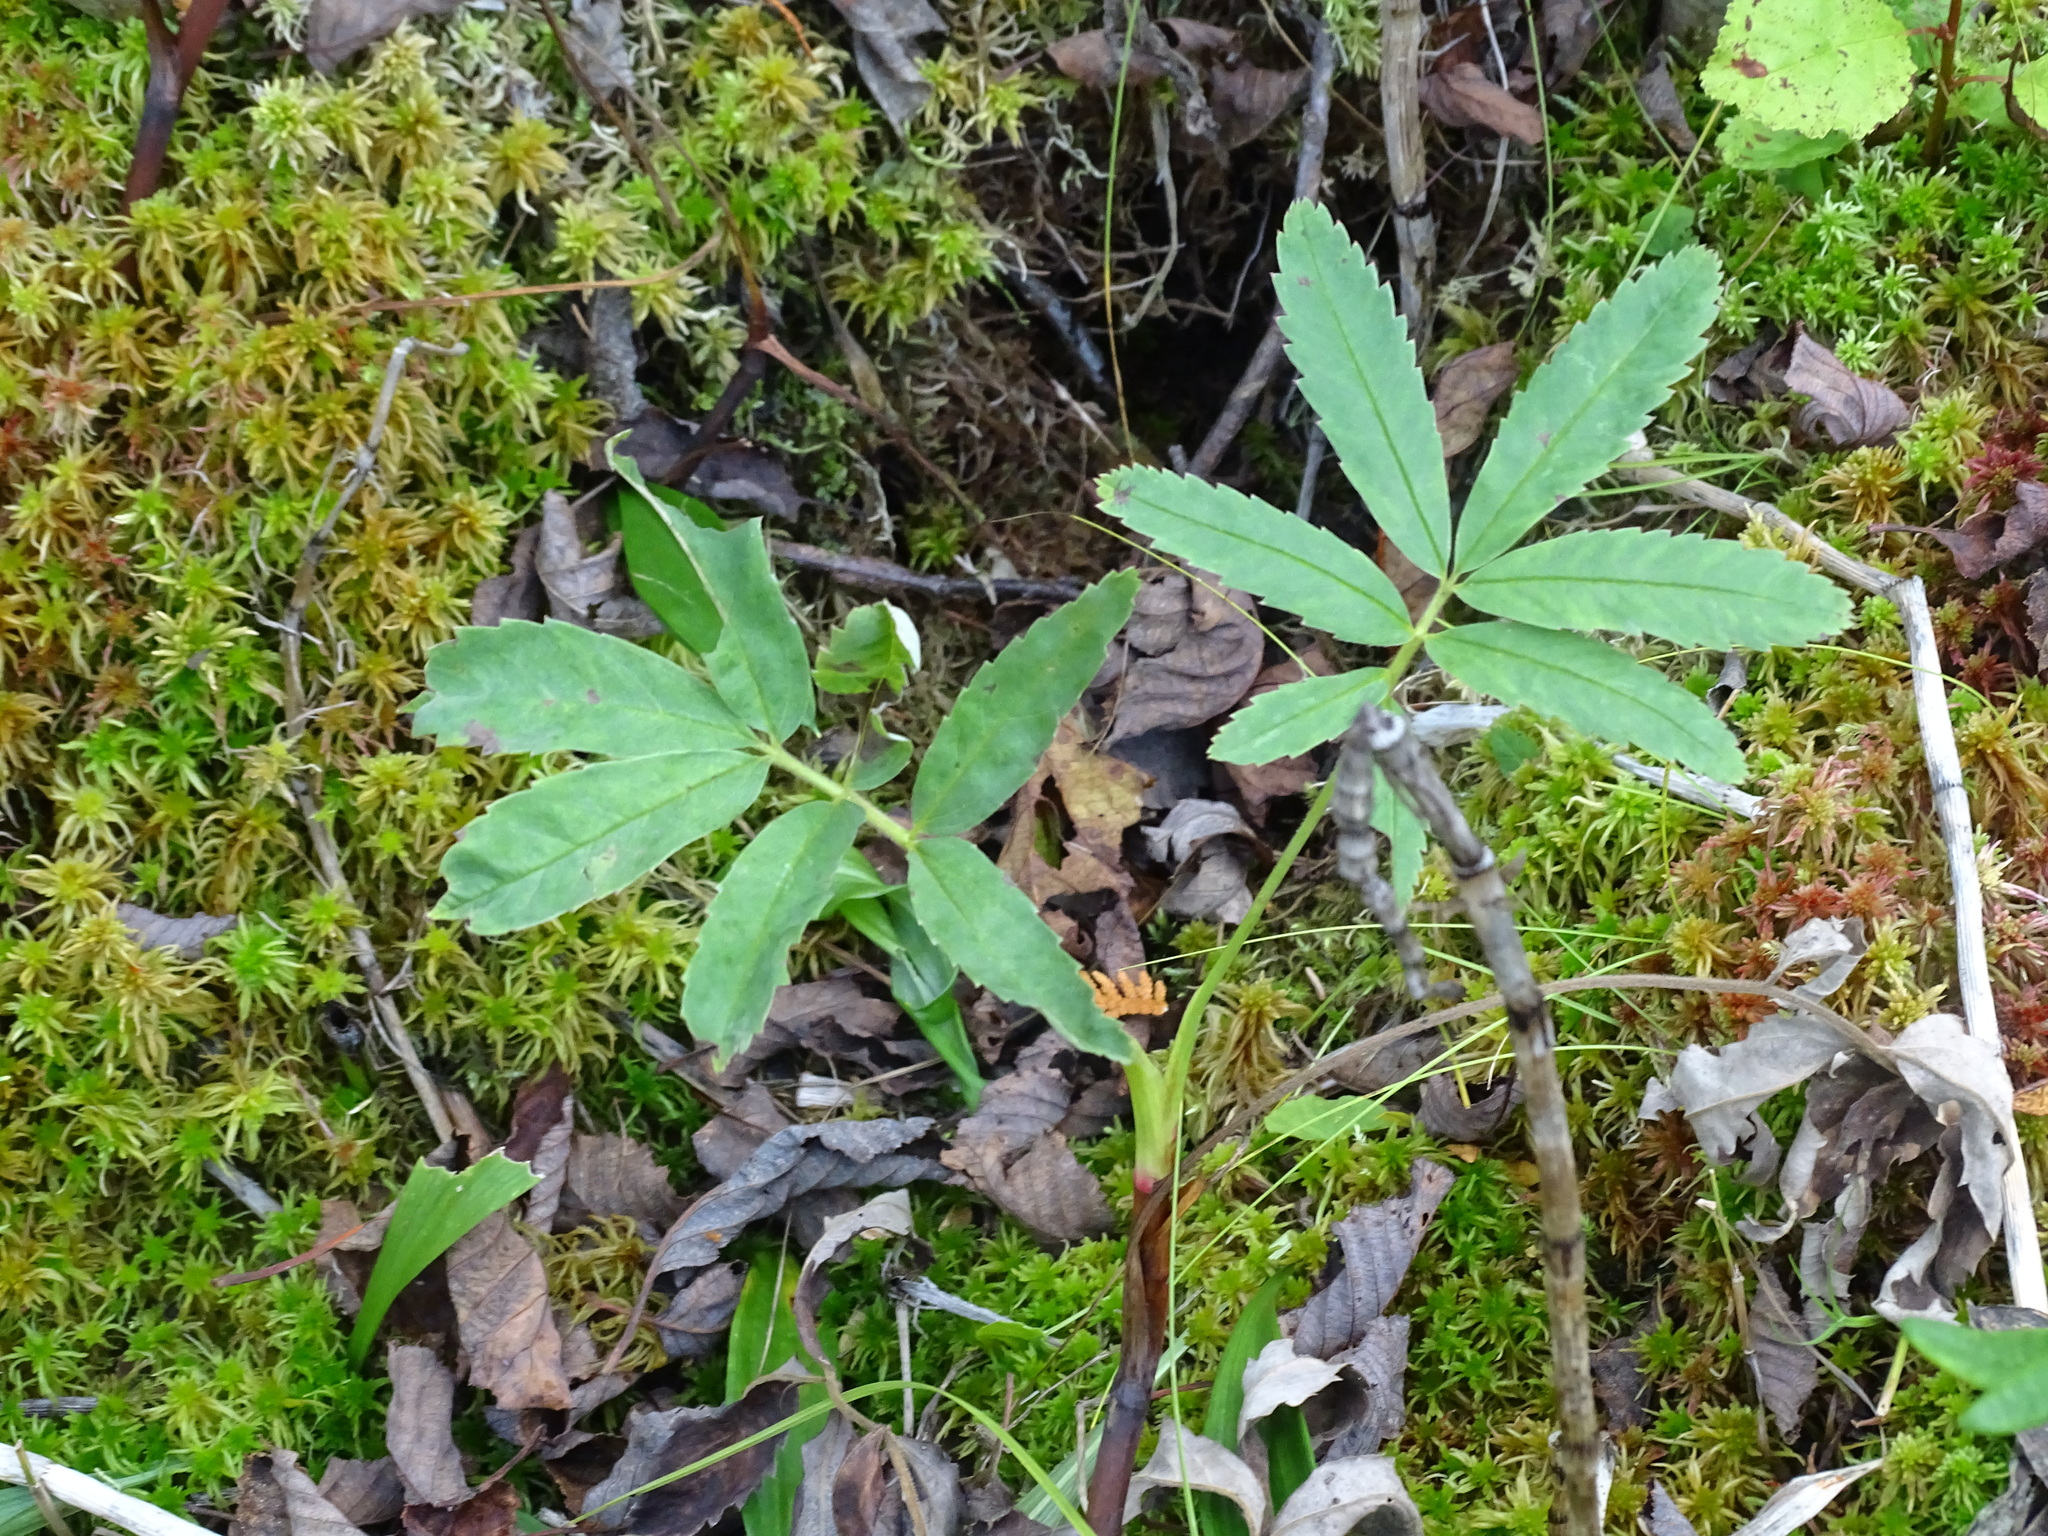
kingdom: Plantae
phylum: Tracheophyta
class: Magnoliopsida
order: Rosales
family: Rosaceae
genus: Comarum
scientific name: Comarum palustre
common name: Marsh cinquefoil
